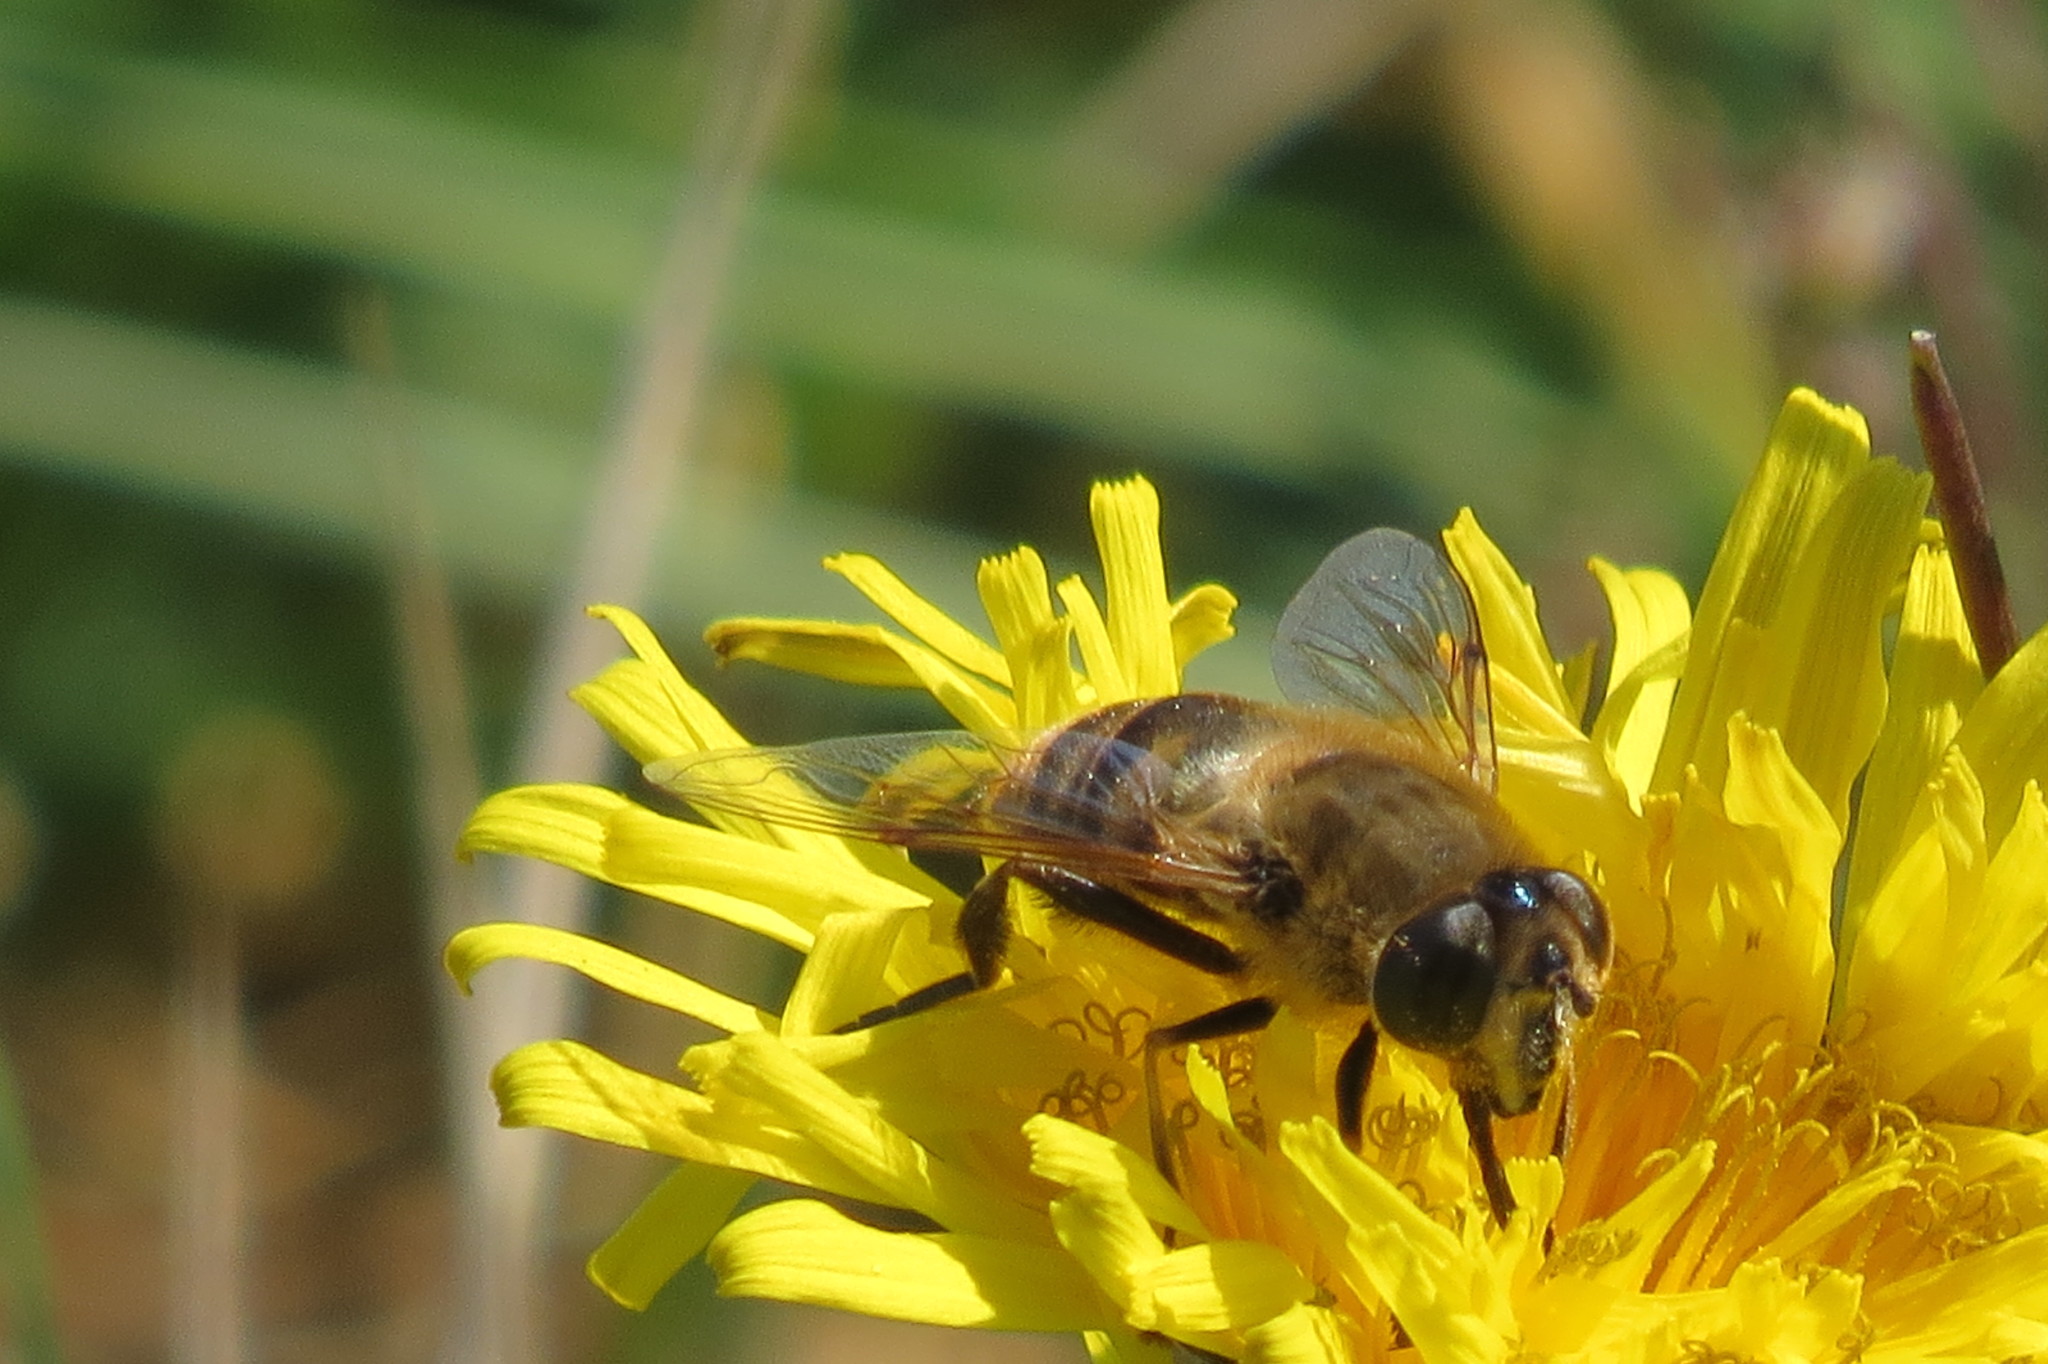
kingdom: Animalia
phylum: Arthropoda
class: Insecta
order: Diptera
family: Syrphidae
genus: Eristalis
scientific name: Eristalis tenax
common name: Drone fly
